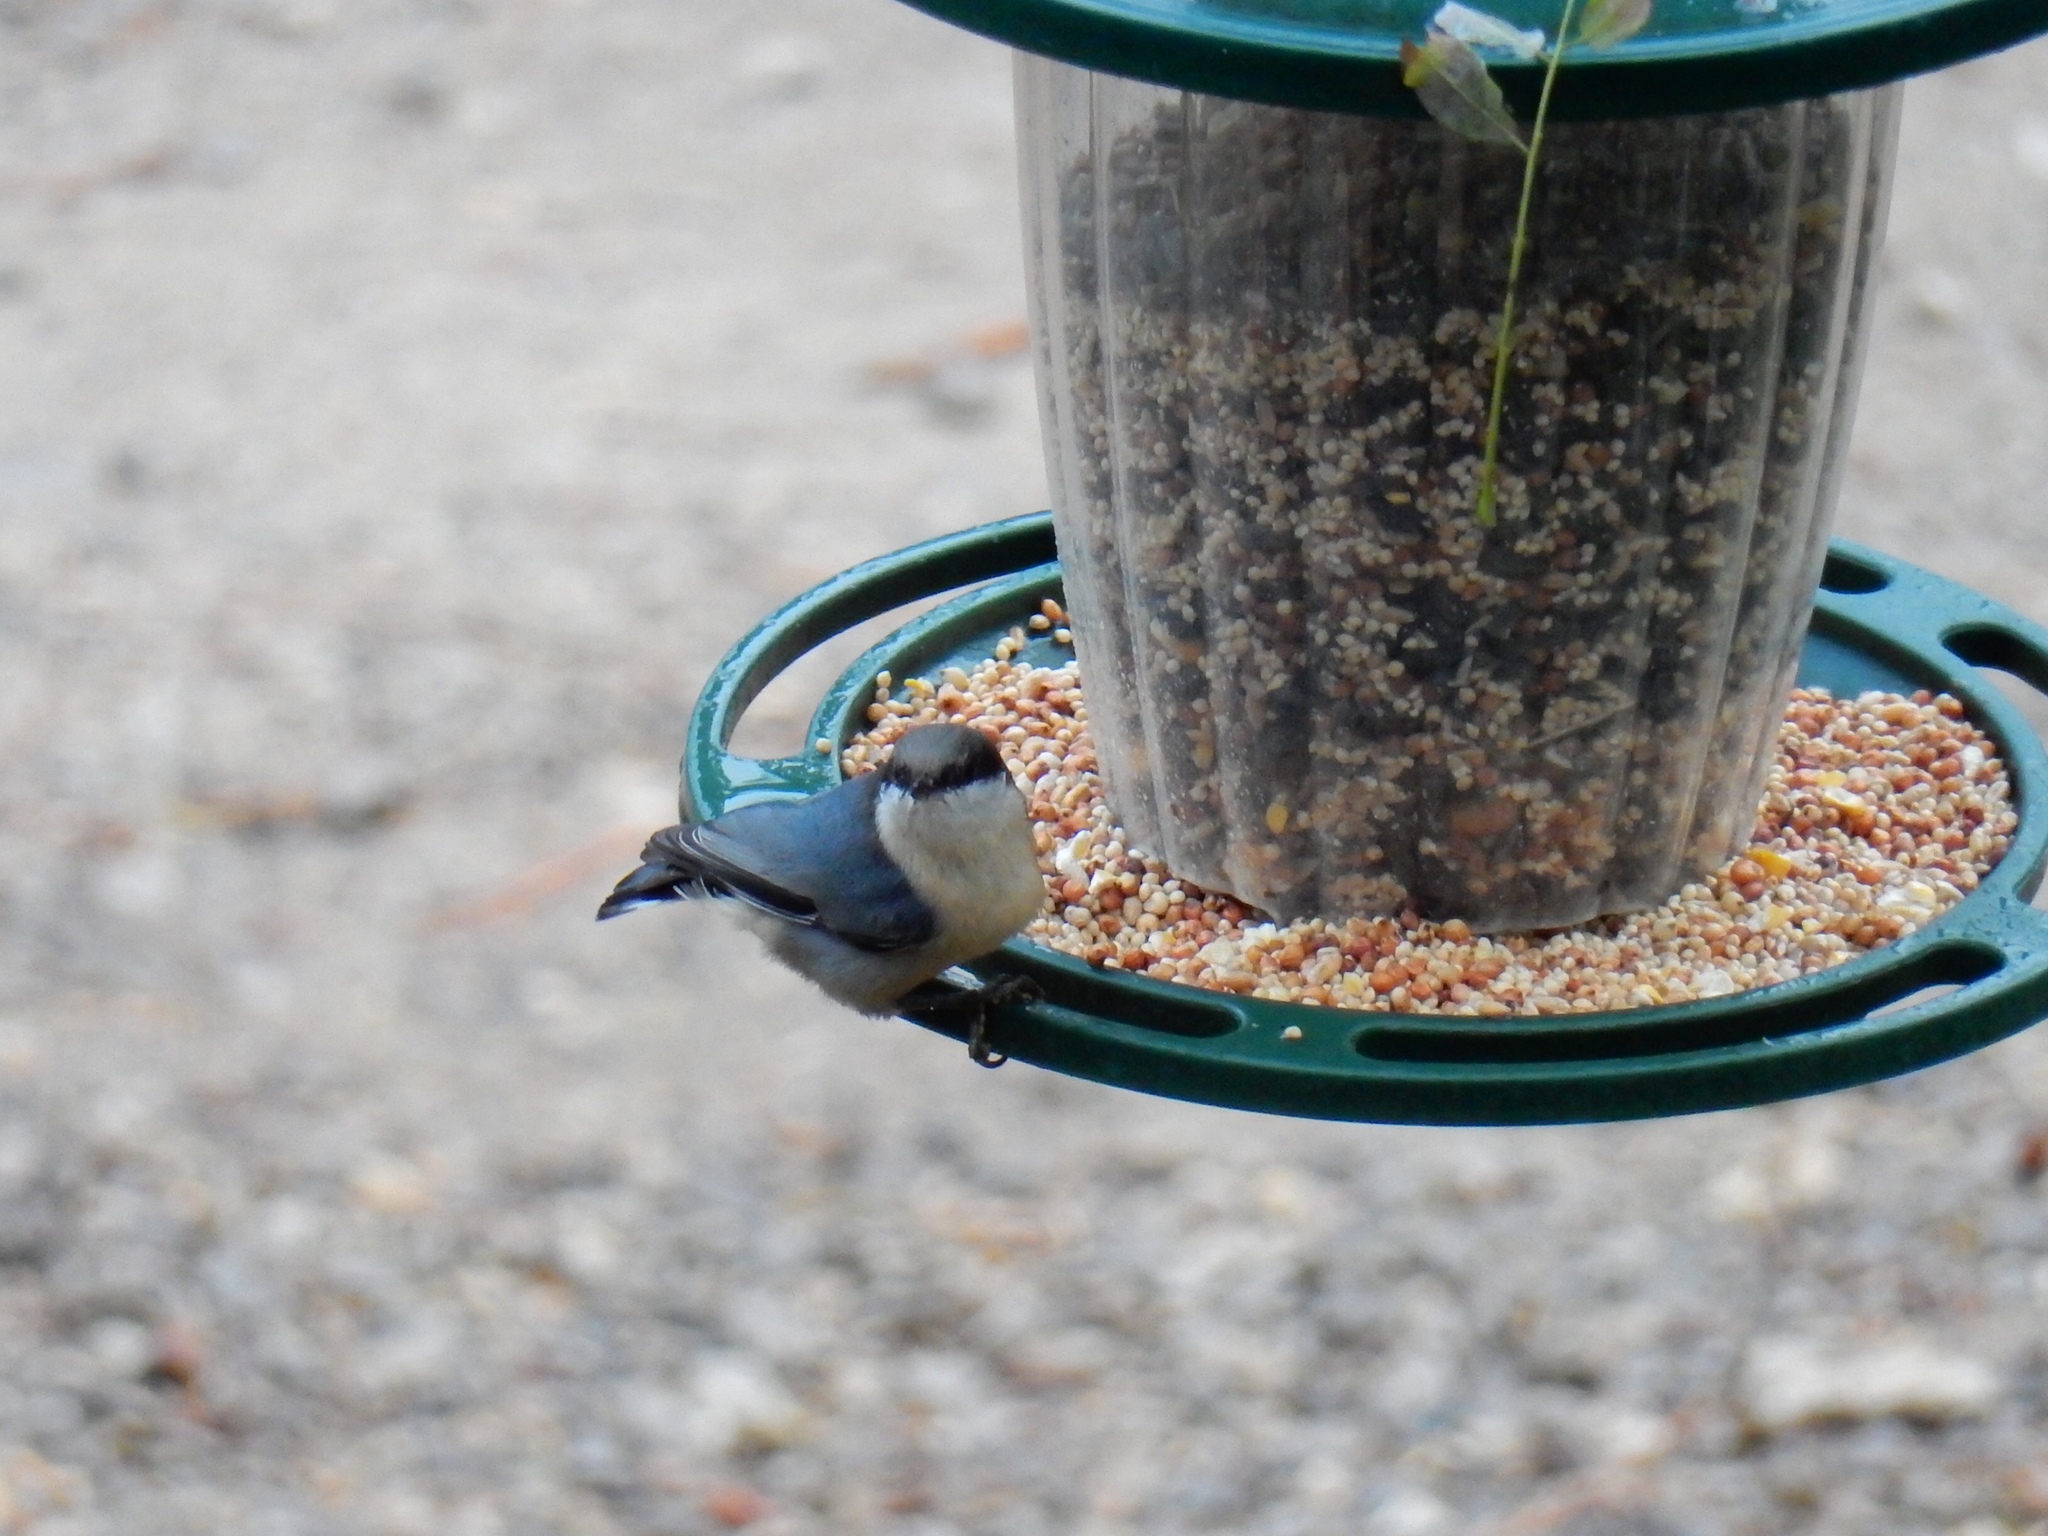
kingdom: Animalia
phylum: Chordata
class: Aves
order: Passeriformes
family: Sittidae
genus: Sitta
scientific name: Sitta pygmaea
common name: Pygmy nuthatch
